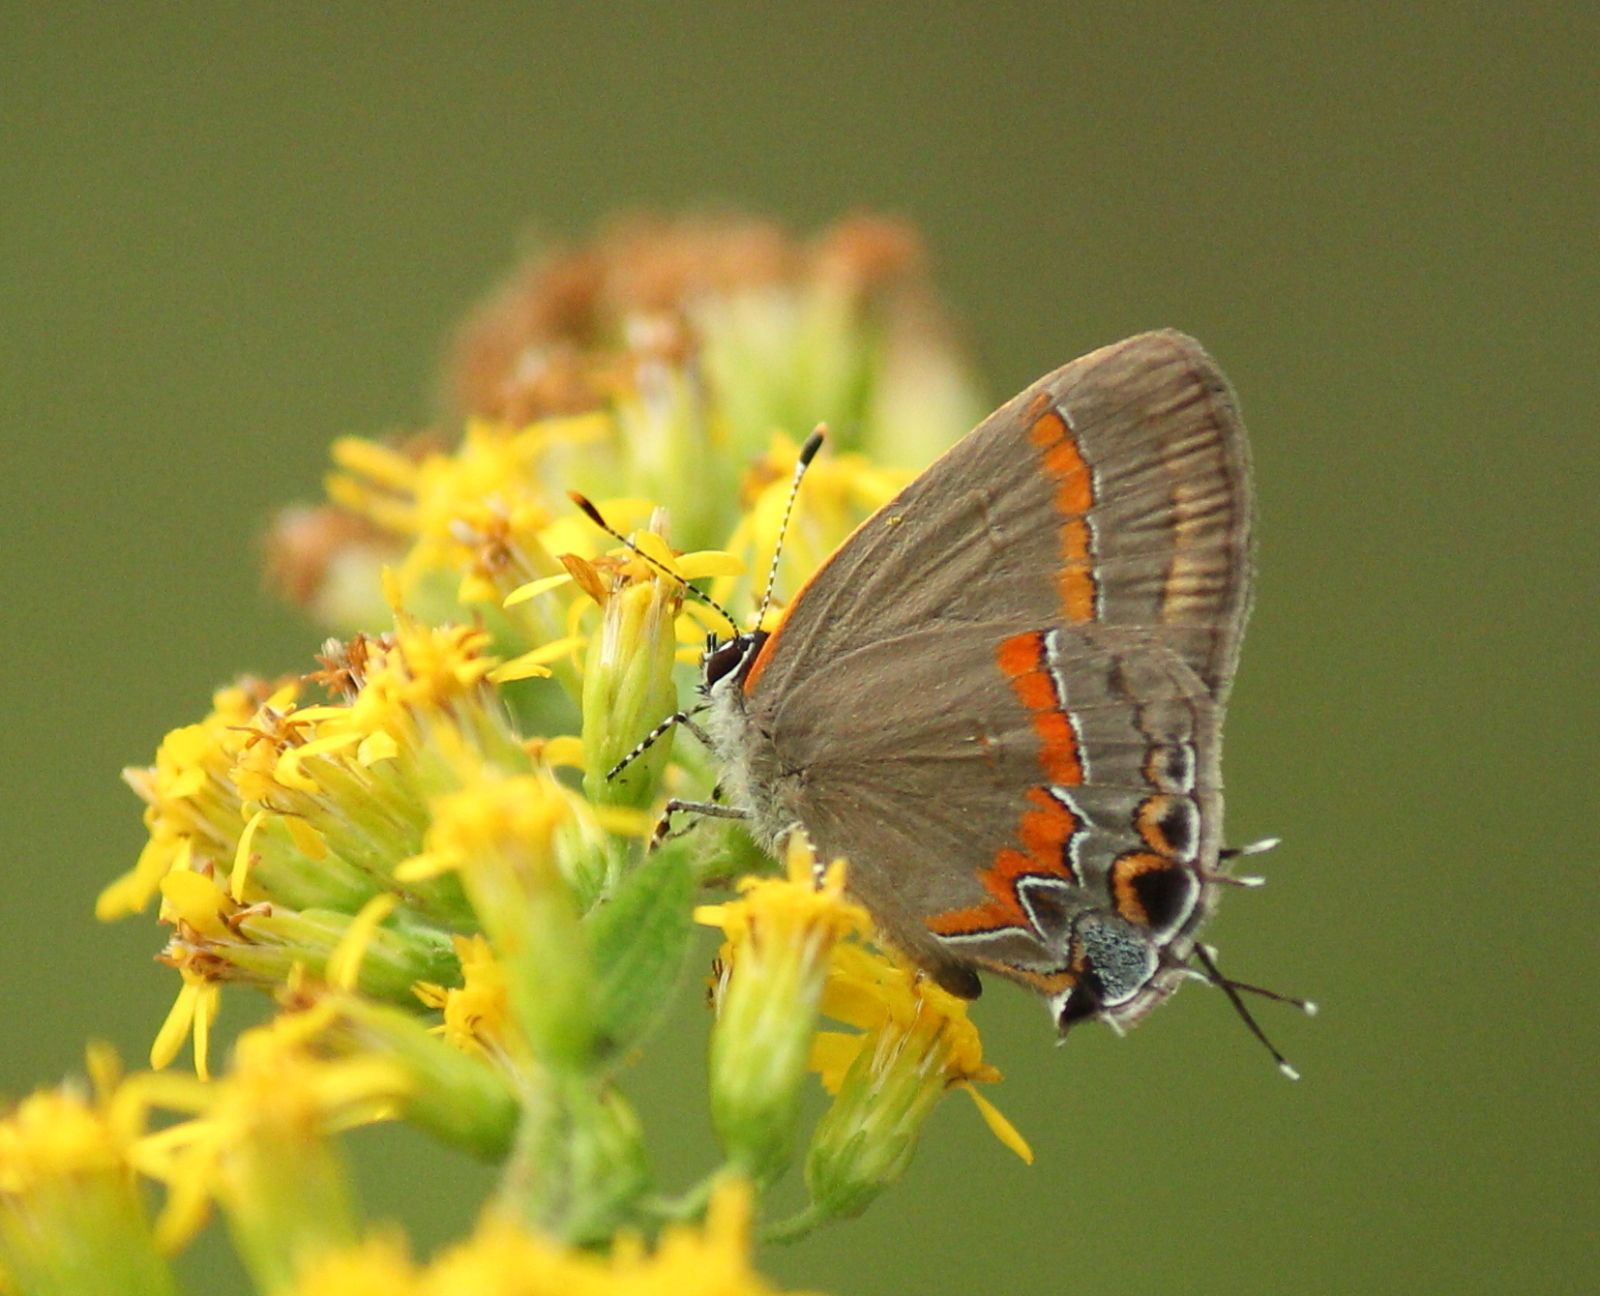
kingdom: Animalia
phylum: Arthropoda
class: Insecta
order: Lepidoptera
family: Lycaenidae
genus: Calycopis
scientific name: Calycopis cecrops
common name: Red-banded hairstreak
